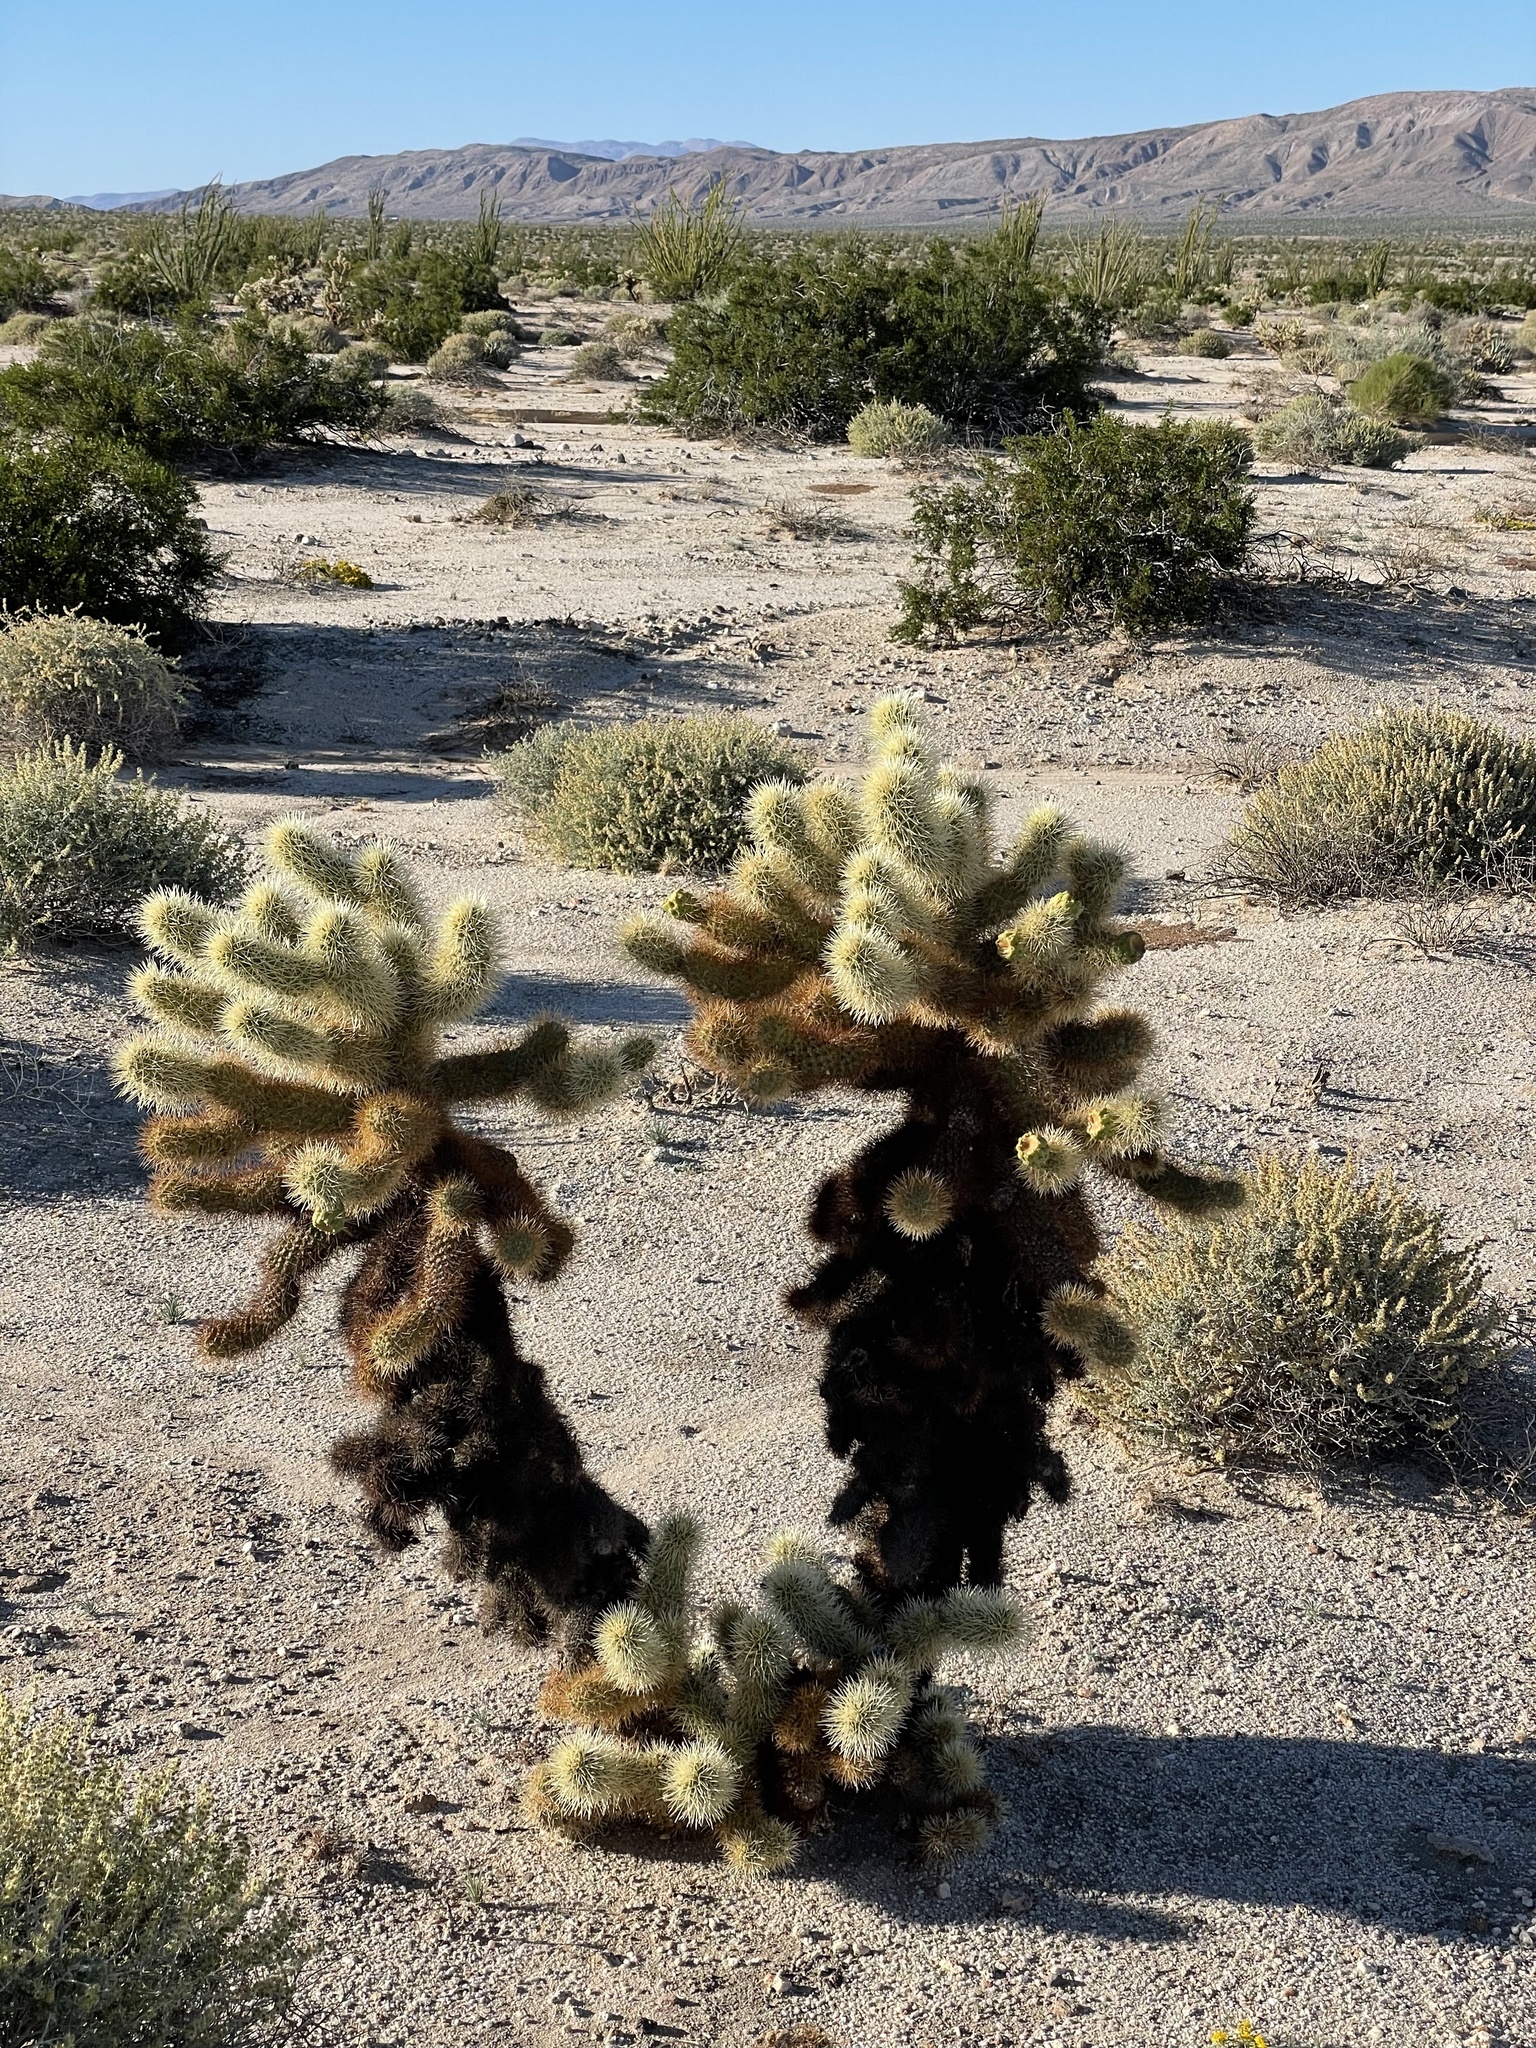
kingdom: Plantae
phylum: Tracheophyta
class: Magnoliopsida
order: Caryophyllales
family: Cactaceae
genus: Cylindropuntia
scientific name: Cylindropuntia fosbergii
